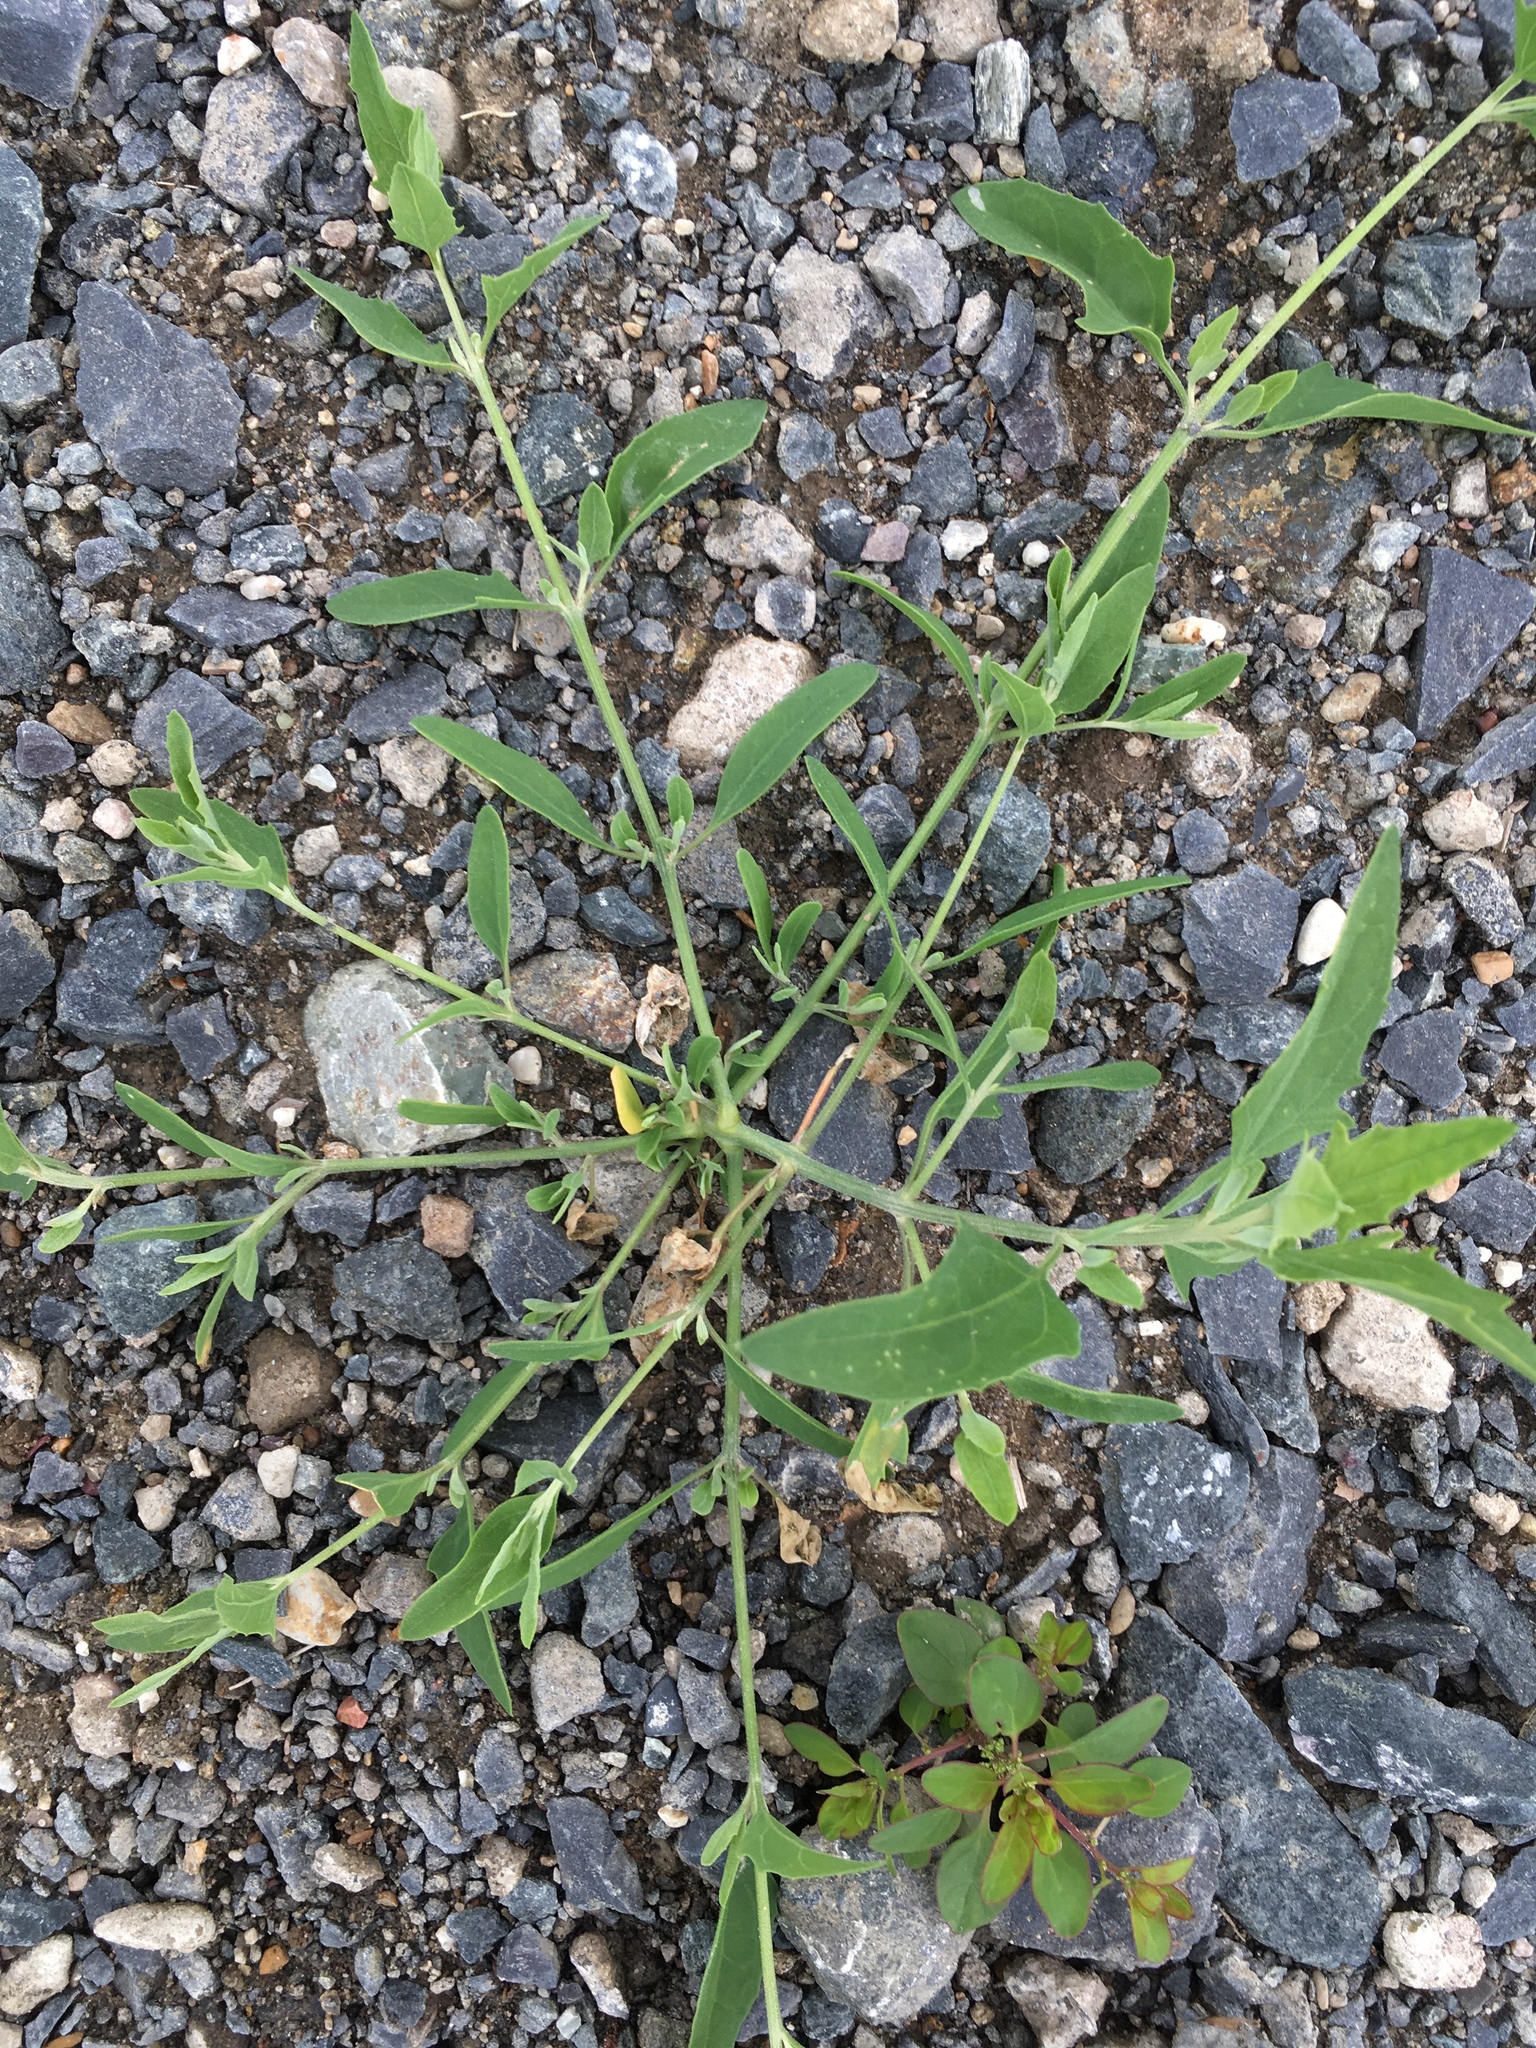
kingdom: Plantae
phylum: Tracheophyta
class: Magnoliopsida
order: Caryophyllales
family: Amaranthaceae
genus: Atriplex
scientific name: Atriplex patula
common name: Common orache
